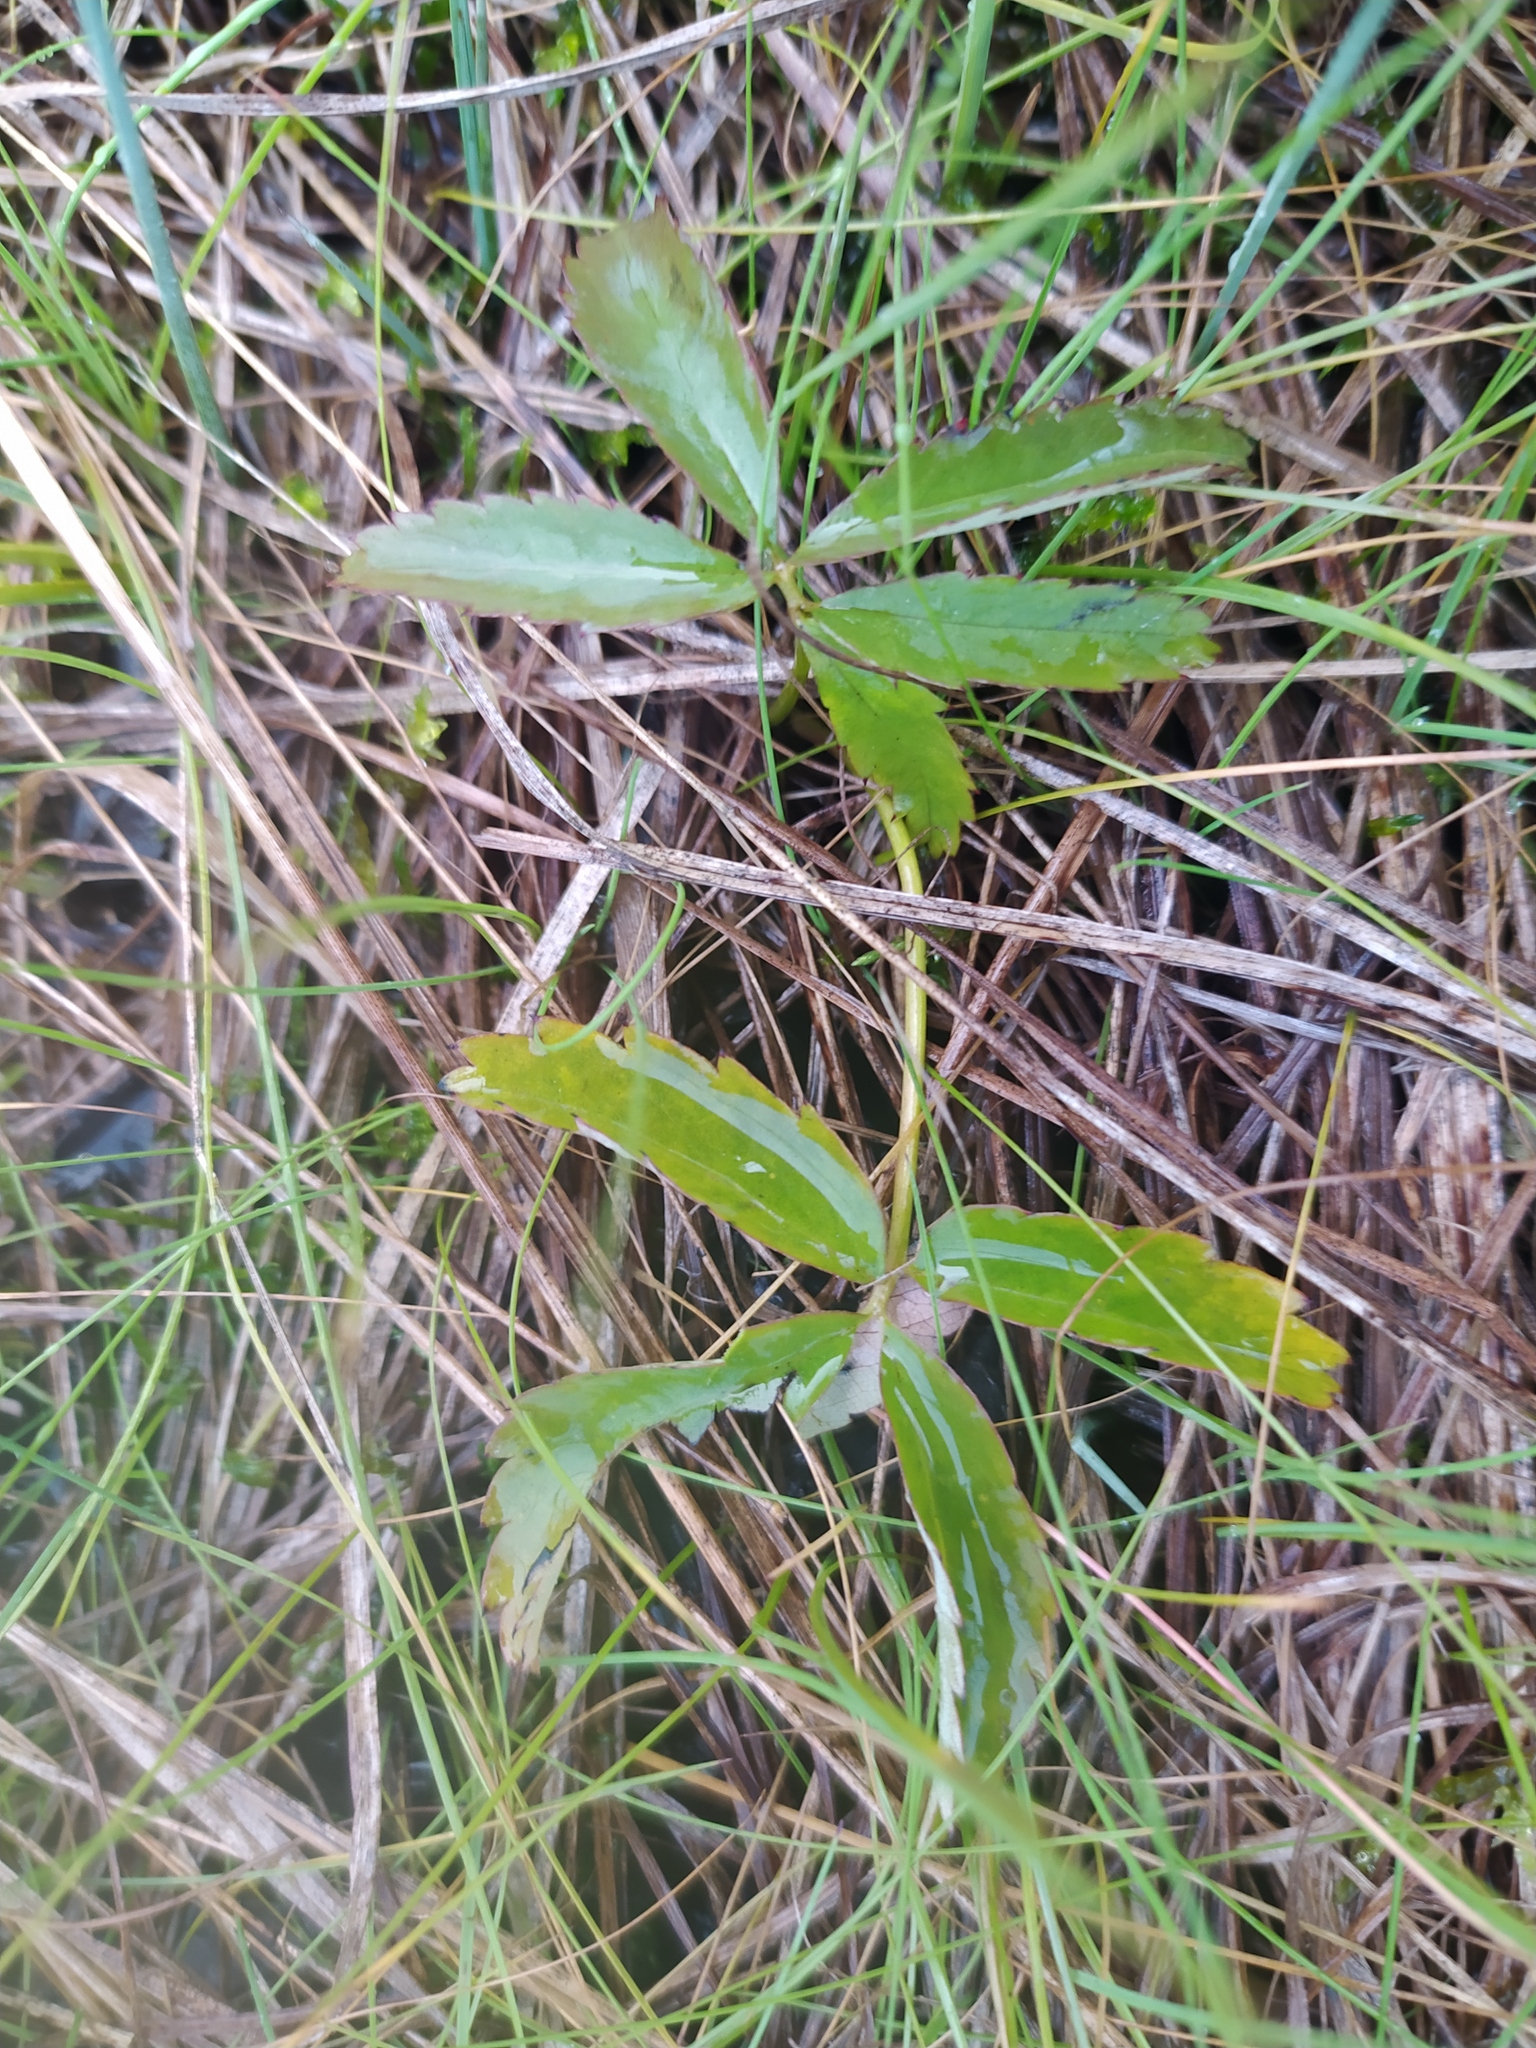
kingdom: Plantae
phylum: Tracheophyta
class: Magnoliopsida
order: Rosales
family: Rosaceae
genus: Comarum
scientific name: Comarum palustre
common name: Marsh cinquefoil
